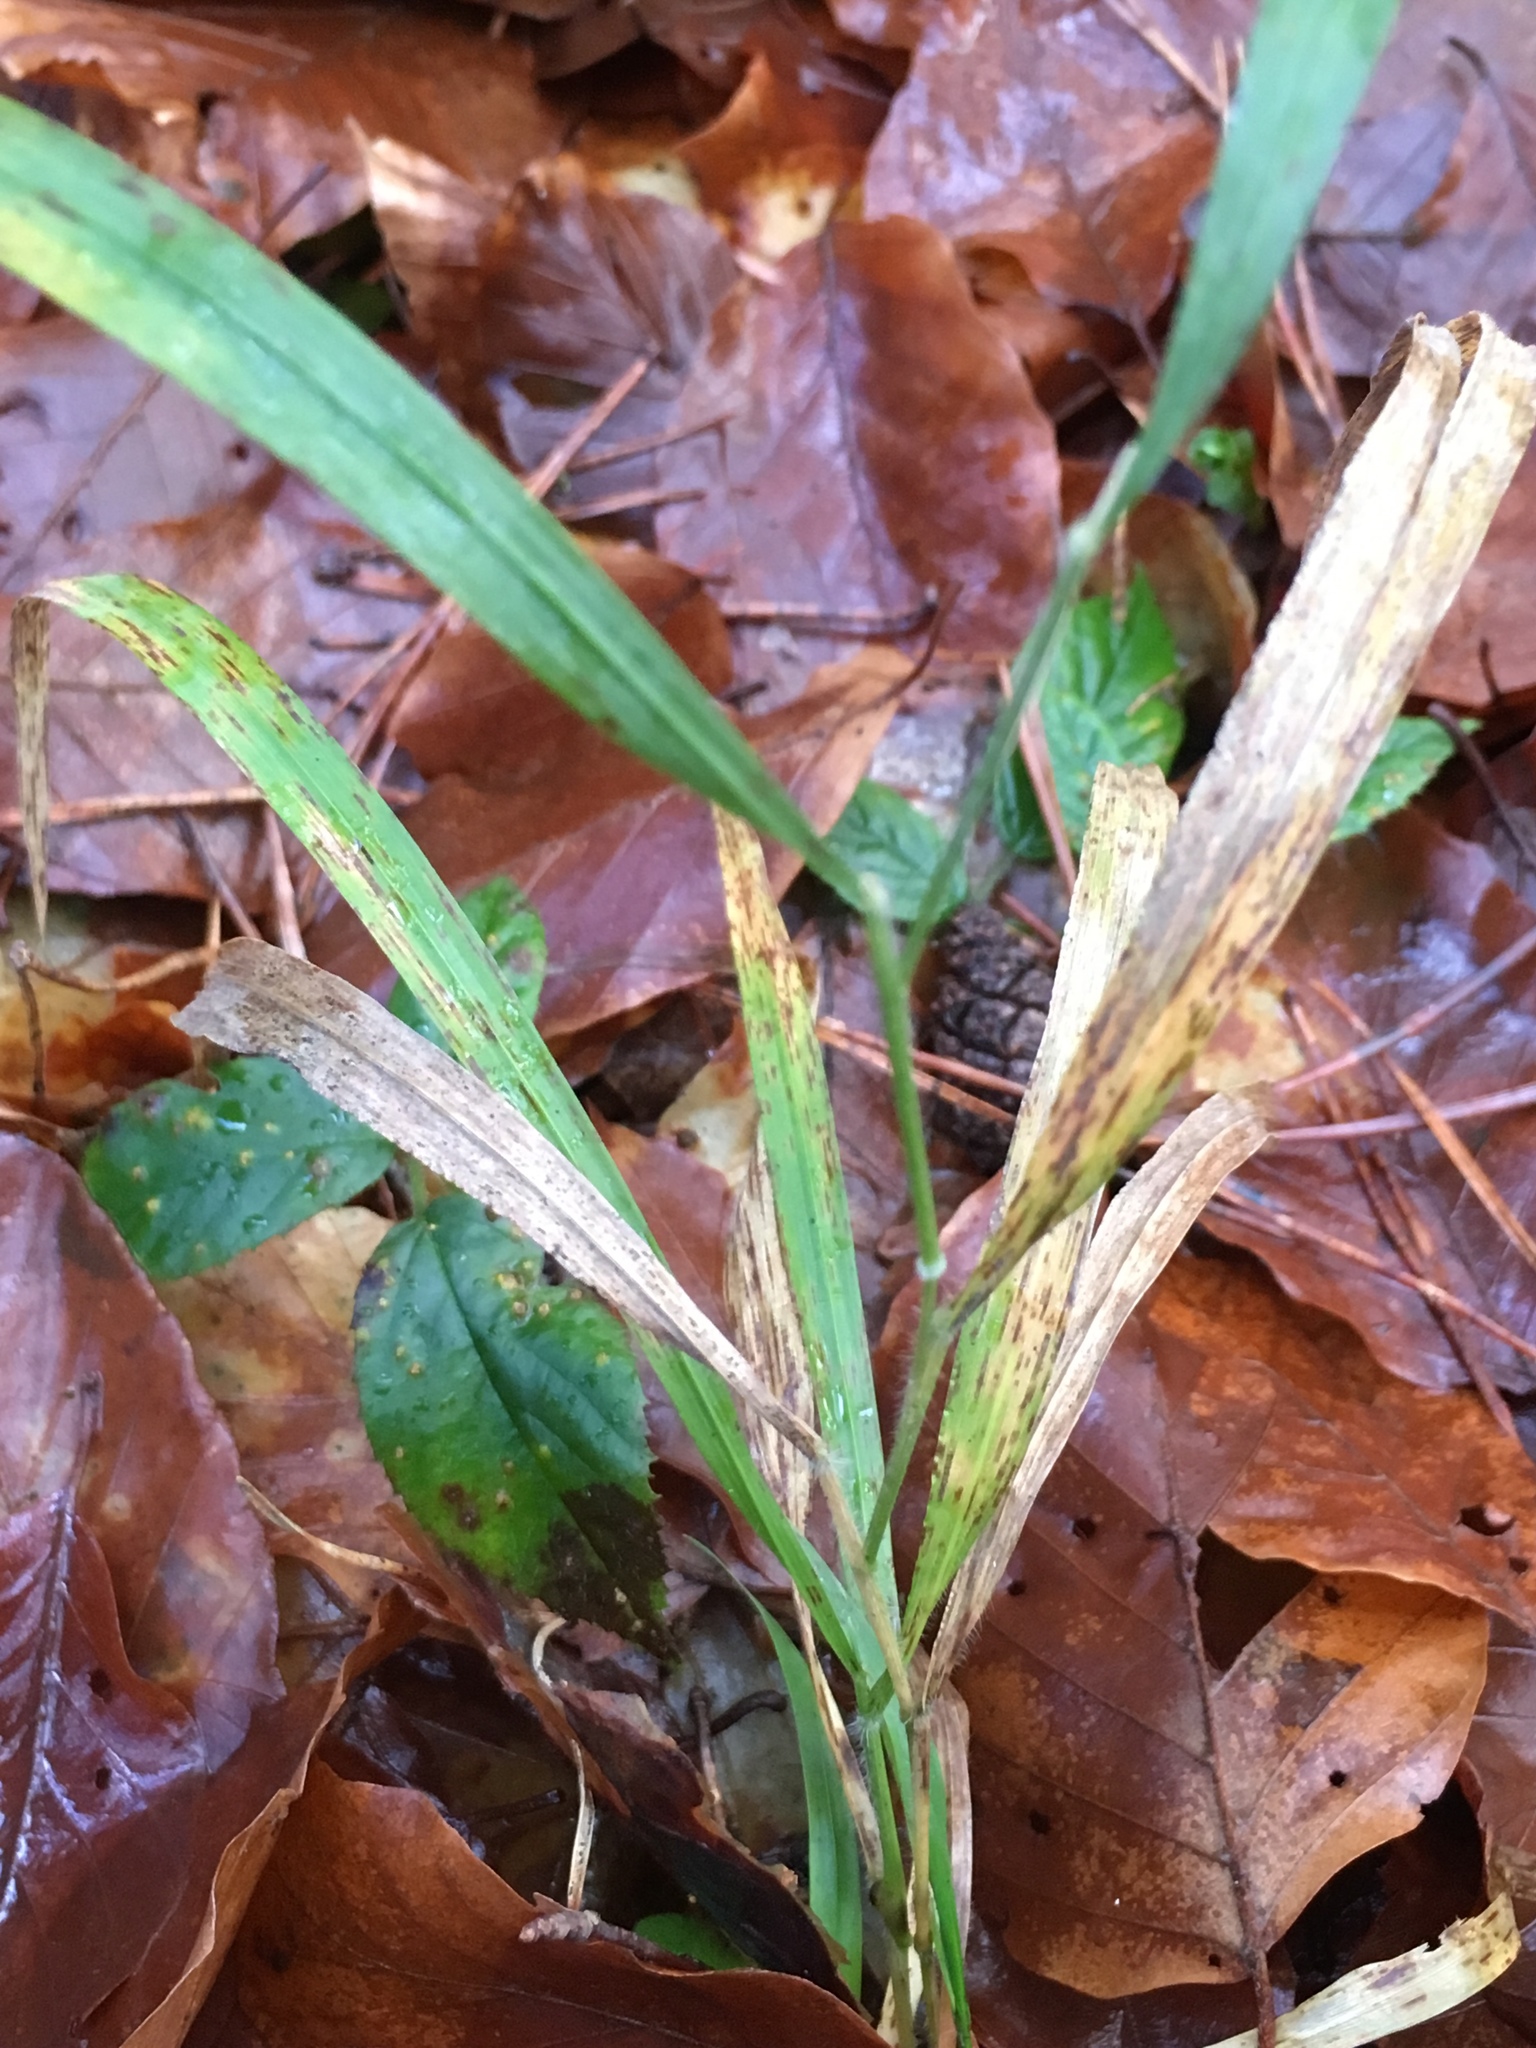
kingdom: Plantae
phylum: Tracheophyta
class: Liliopsida
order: Poales
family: Poaceae
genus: Brachypodium
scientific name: Brachypodium sylvaticum
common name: False-brome
